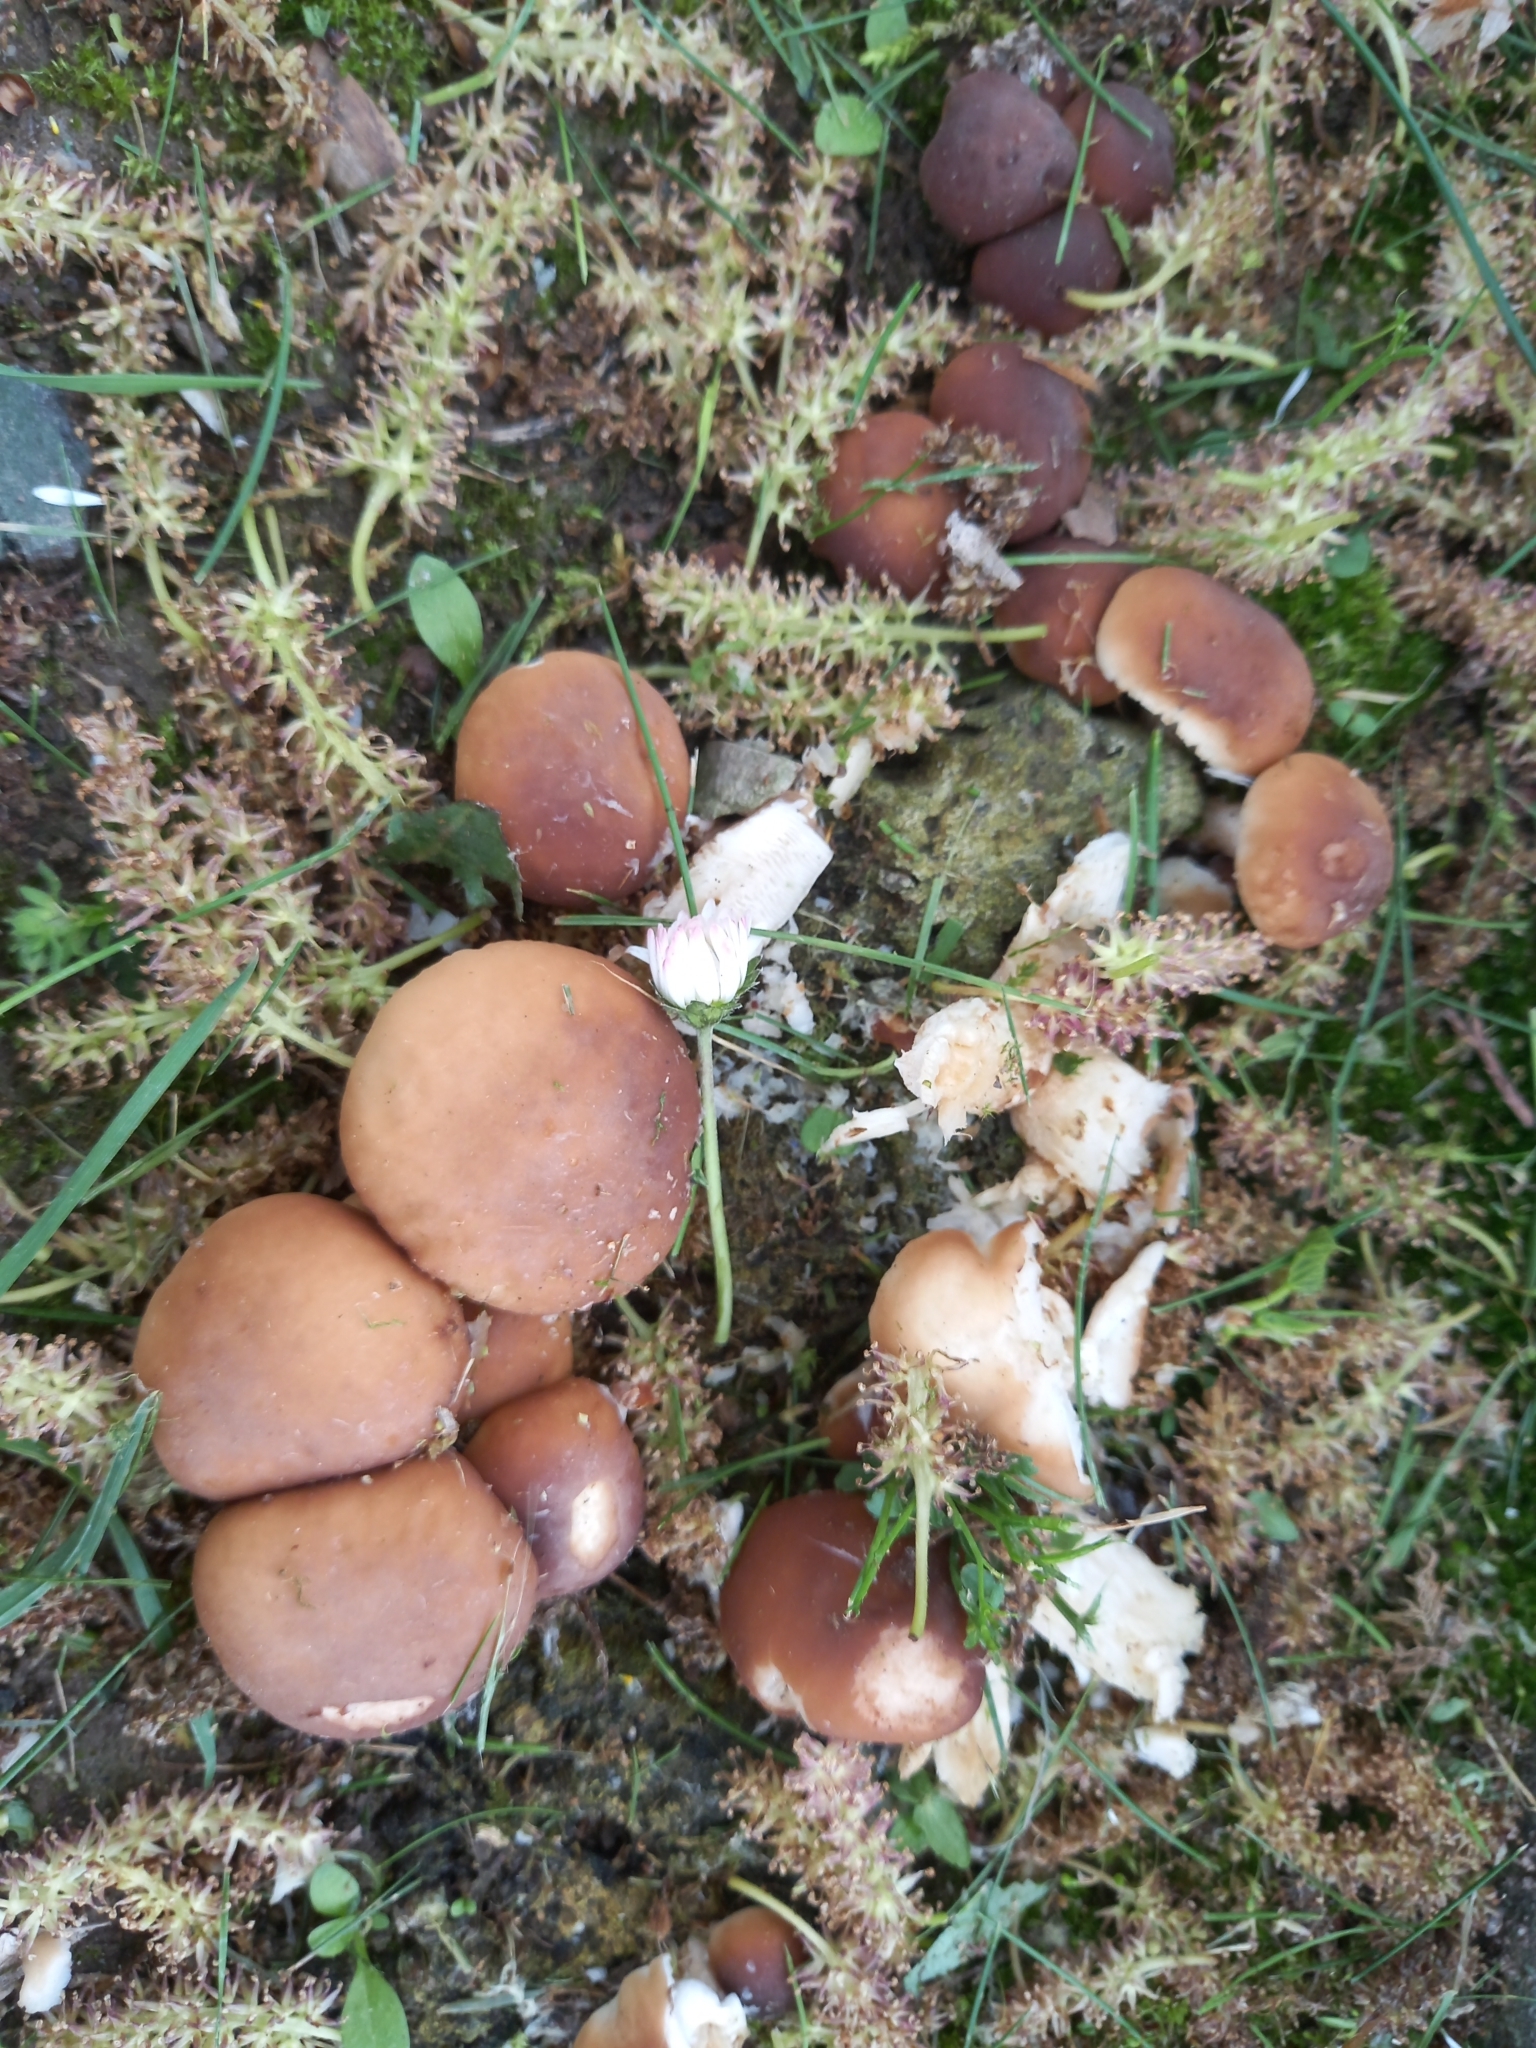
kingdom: Fungi
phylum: Basidiomycota
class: Agaricomycetes
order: Agaricales
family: Tubariaceae
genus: Cyclocybe
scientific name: Cyclocybe cylindracea
